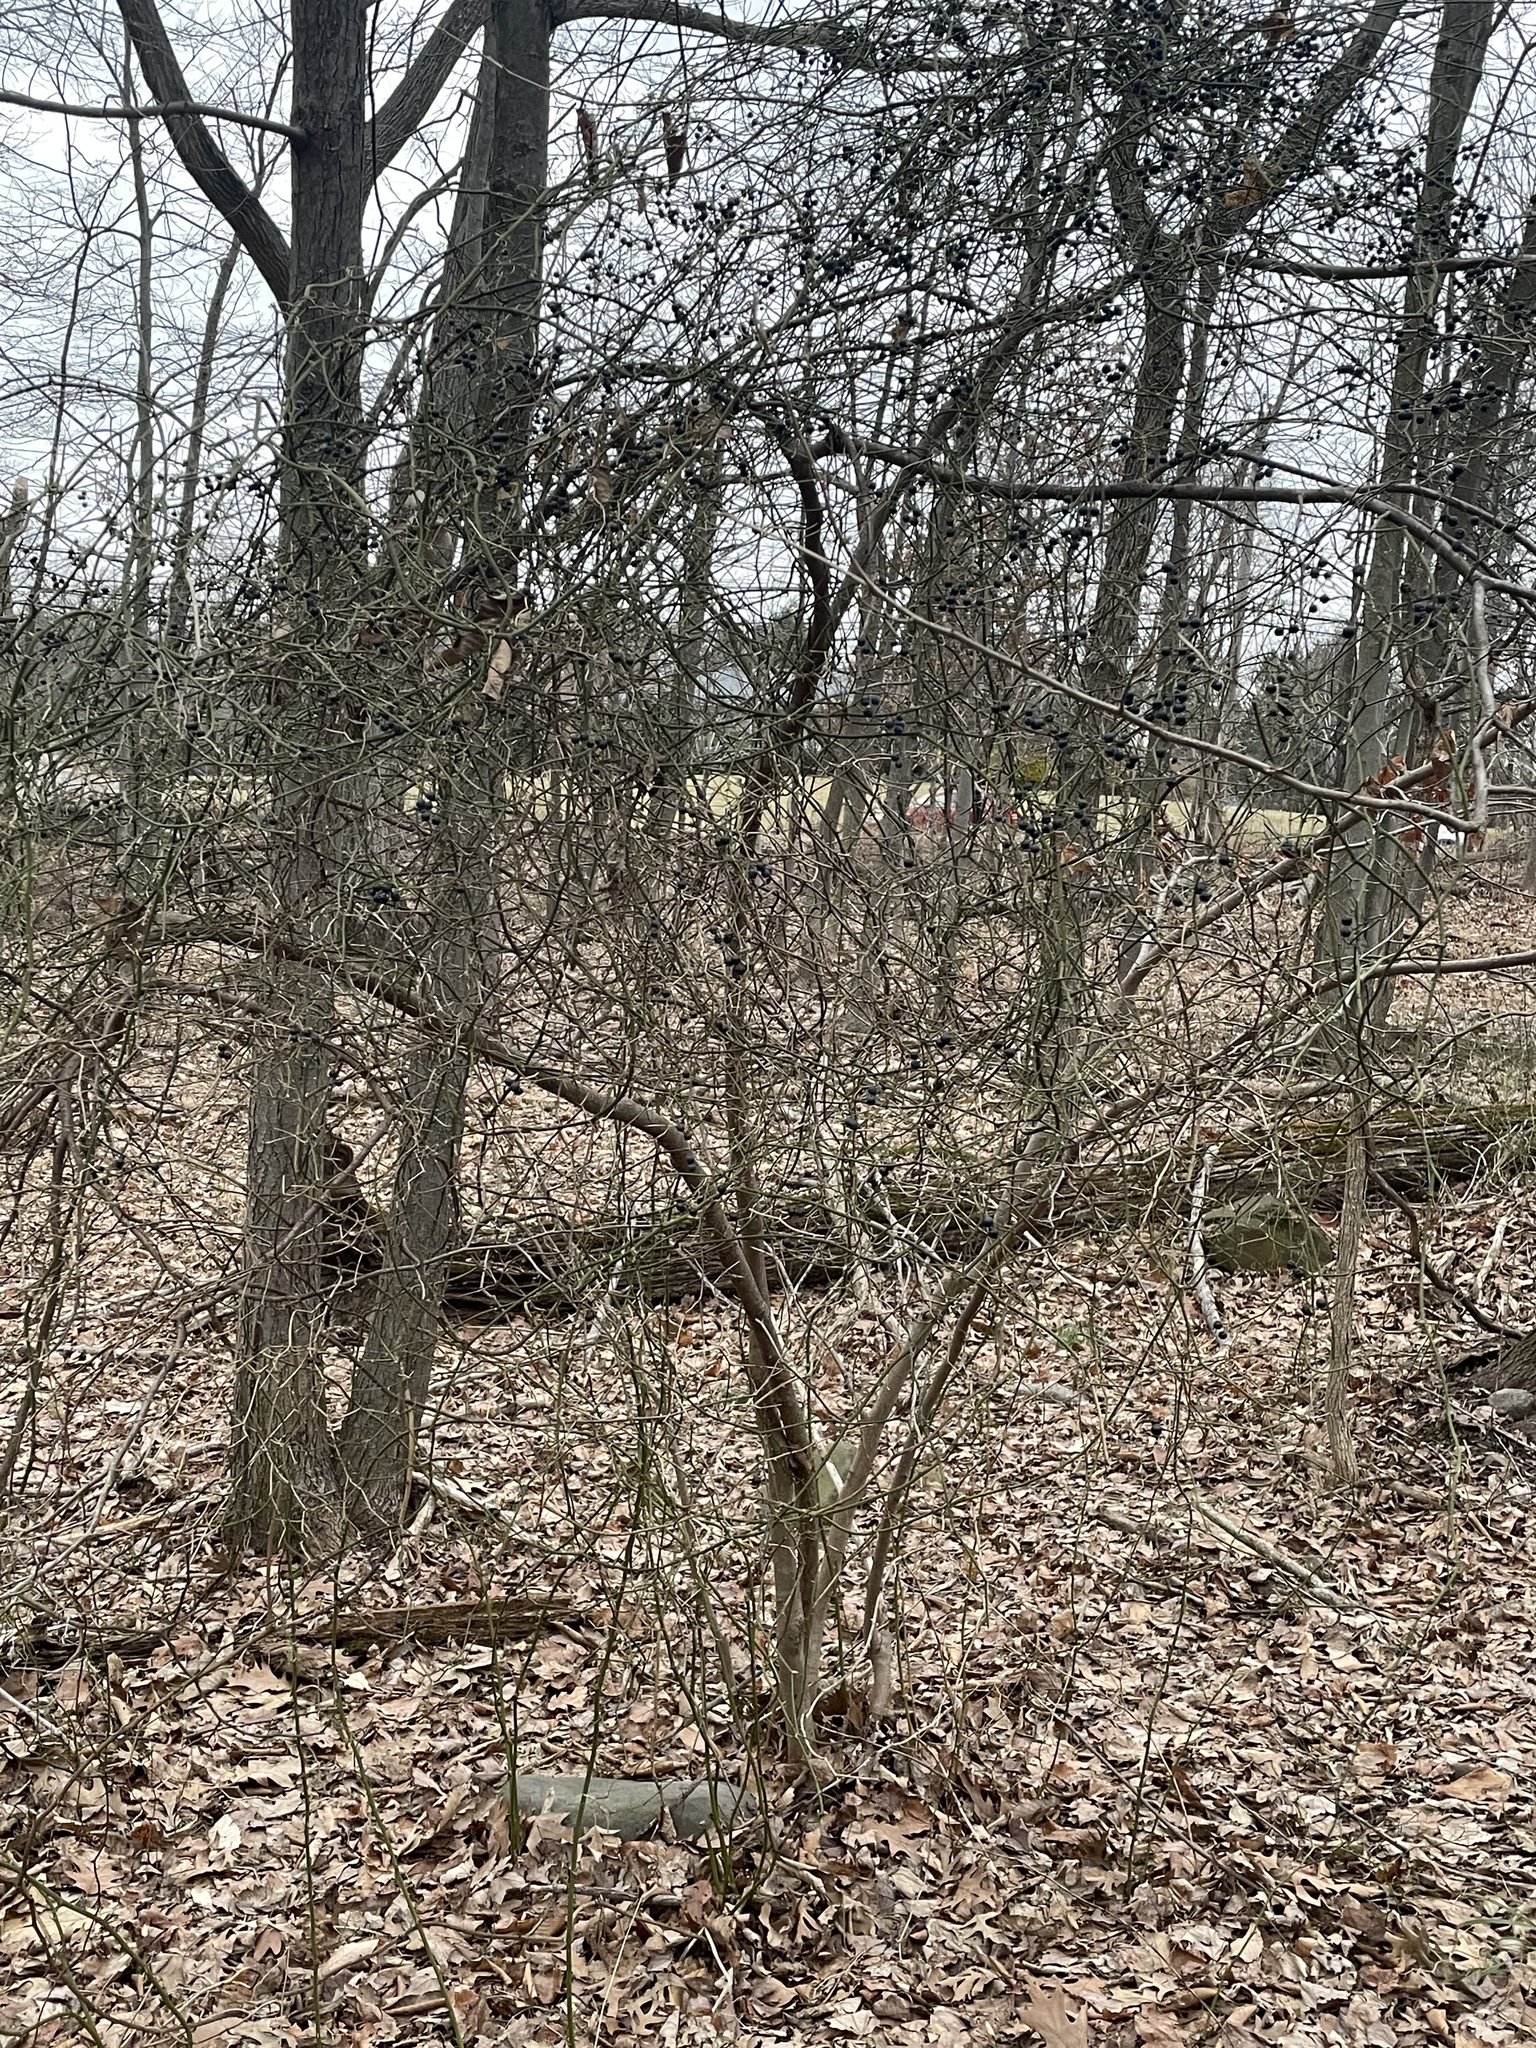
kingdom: Plantae
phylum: Tracheophyta
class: Magnoliopsida
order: Fagales
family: Fagaceae
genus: Fagus
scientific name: Fagus grandifolia
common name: American beech
